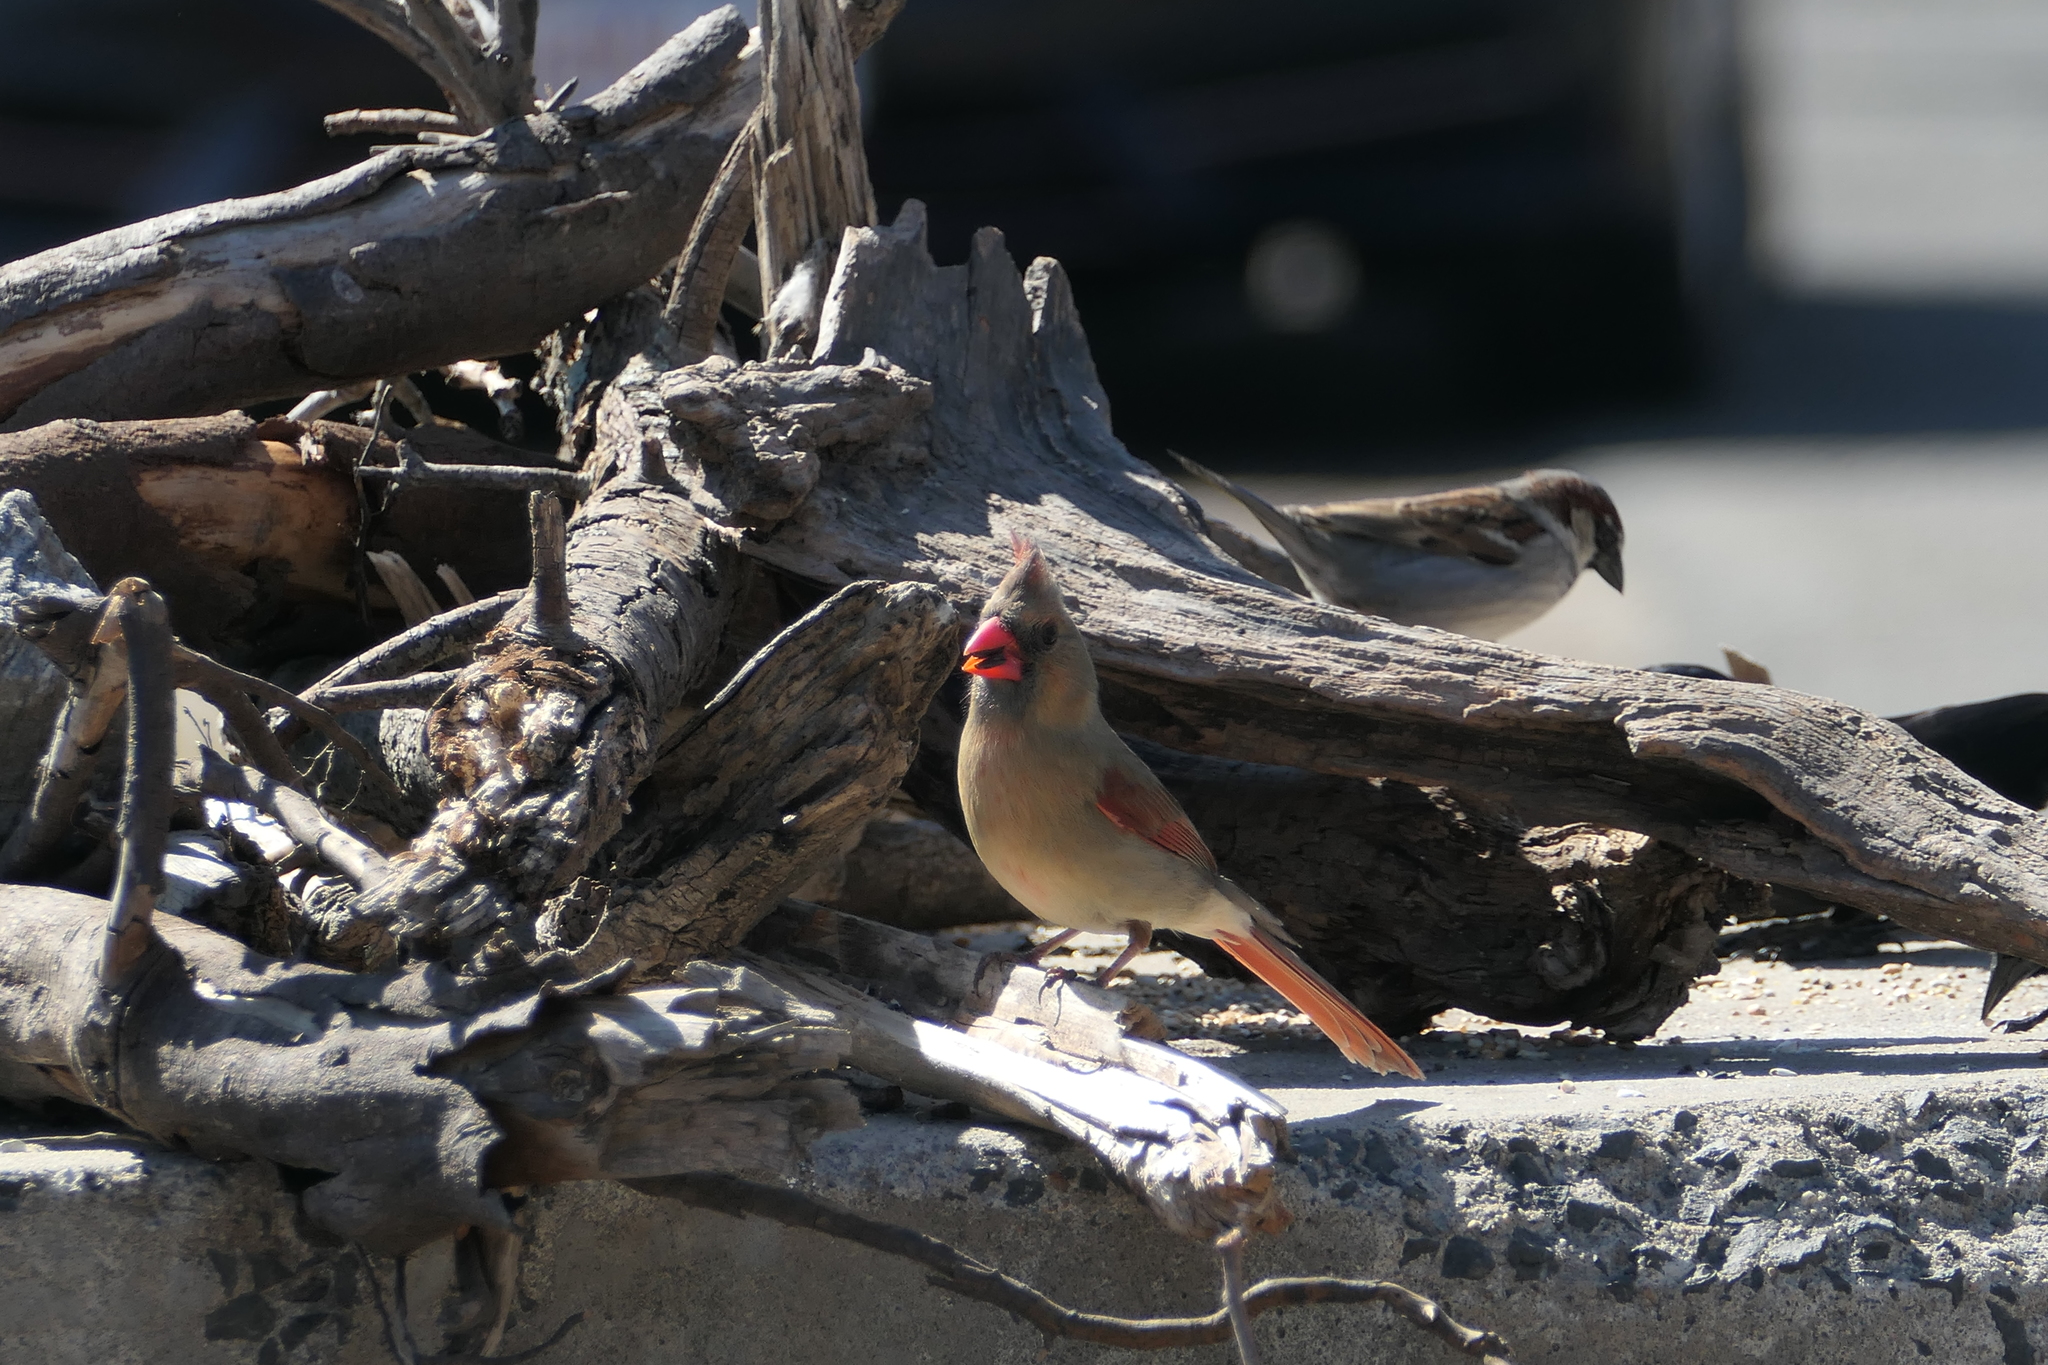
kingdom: Animalia
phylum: Chordata
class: Aves
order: Passeriformes
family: Cardinalidae
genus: Cardinalis
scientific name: Cardinalis cardinalis
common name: Northern cardinal
